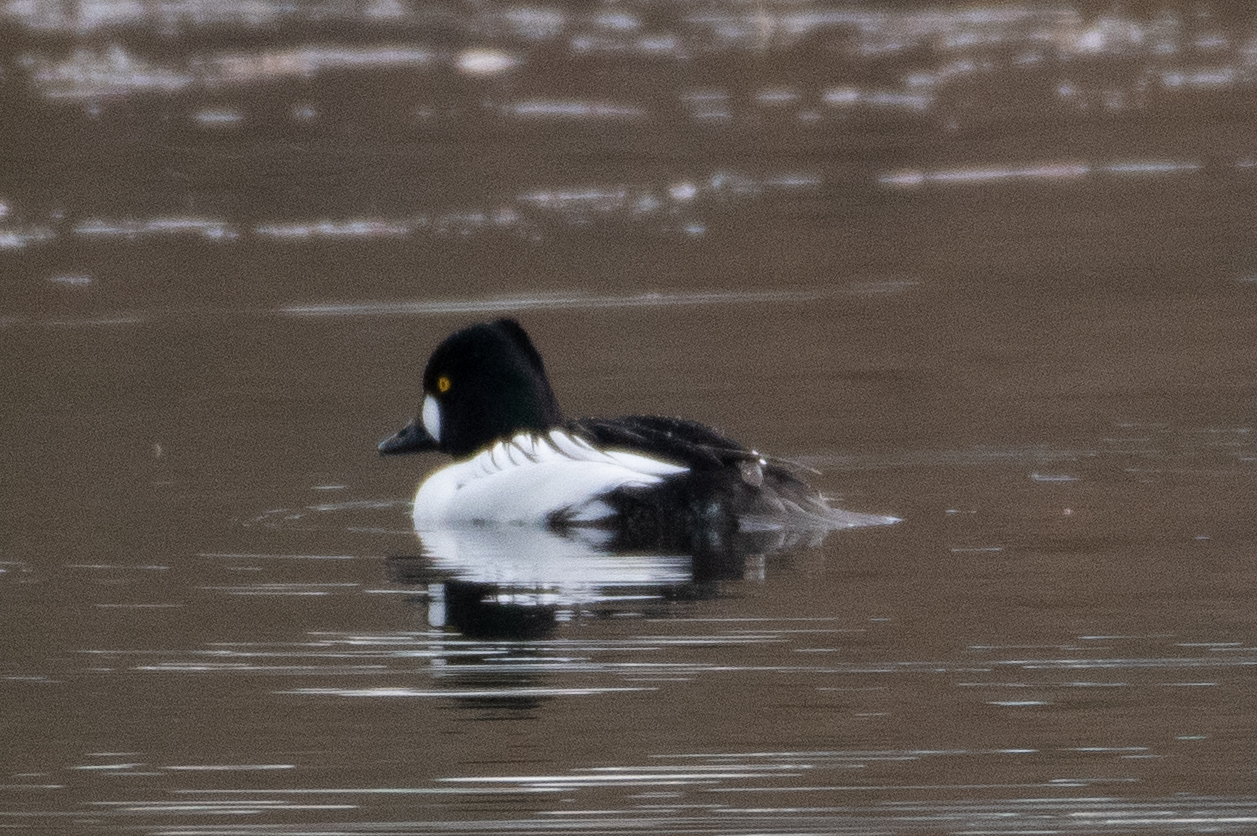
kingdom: Animalia
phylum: Chordata
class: Aves
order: Anseriformes
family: Anatidae
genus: Bucephala
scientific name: Bucephala clangula
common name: Common goldeneye
